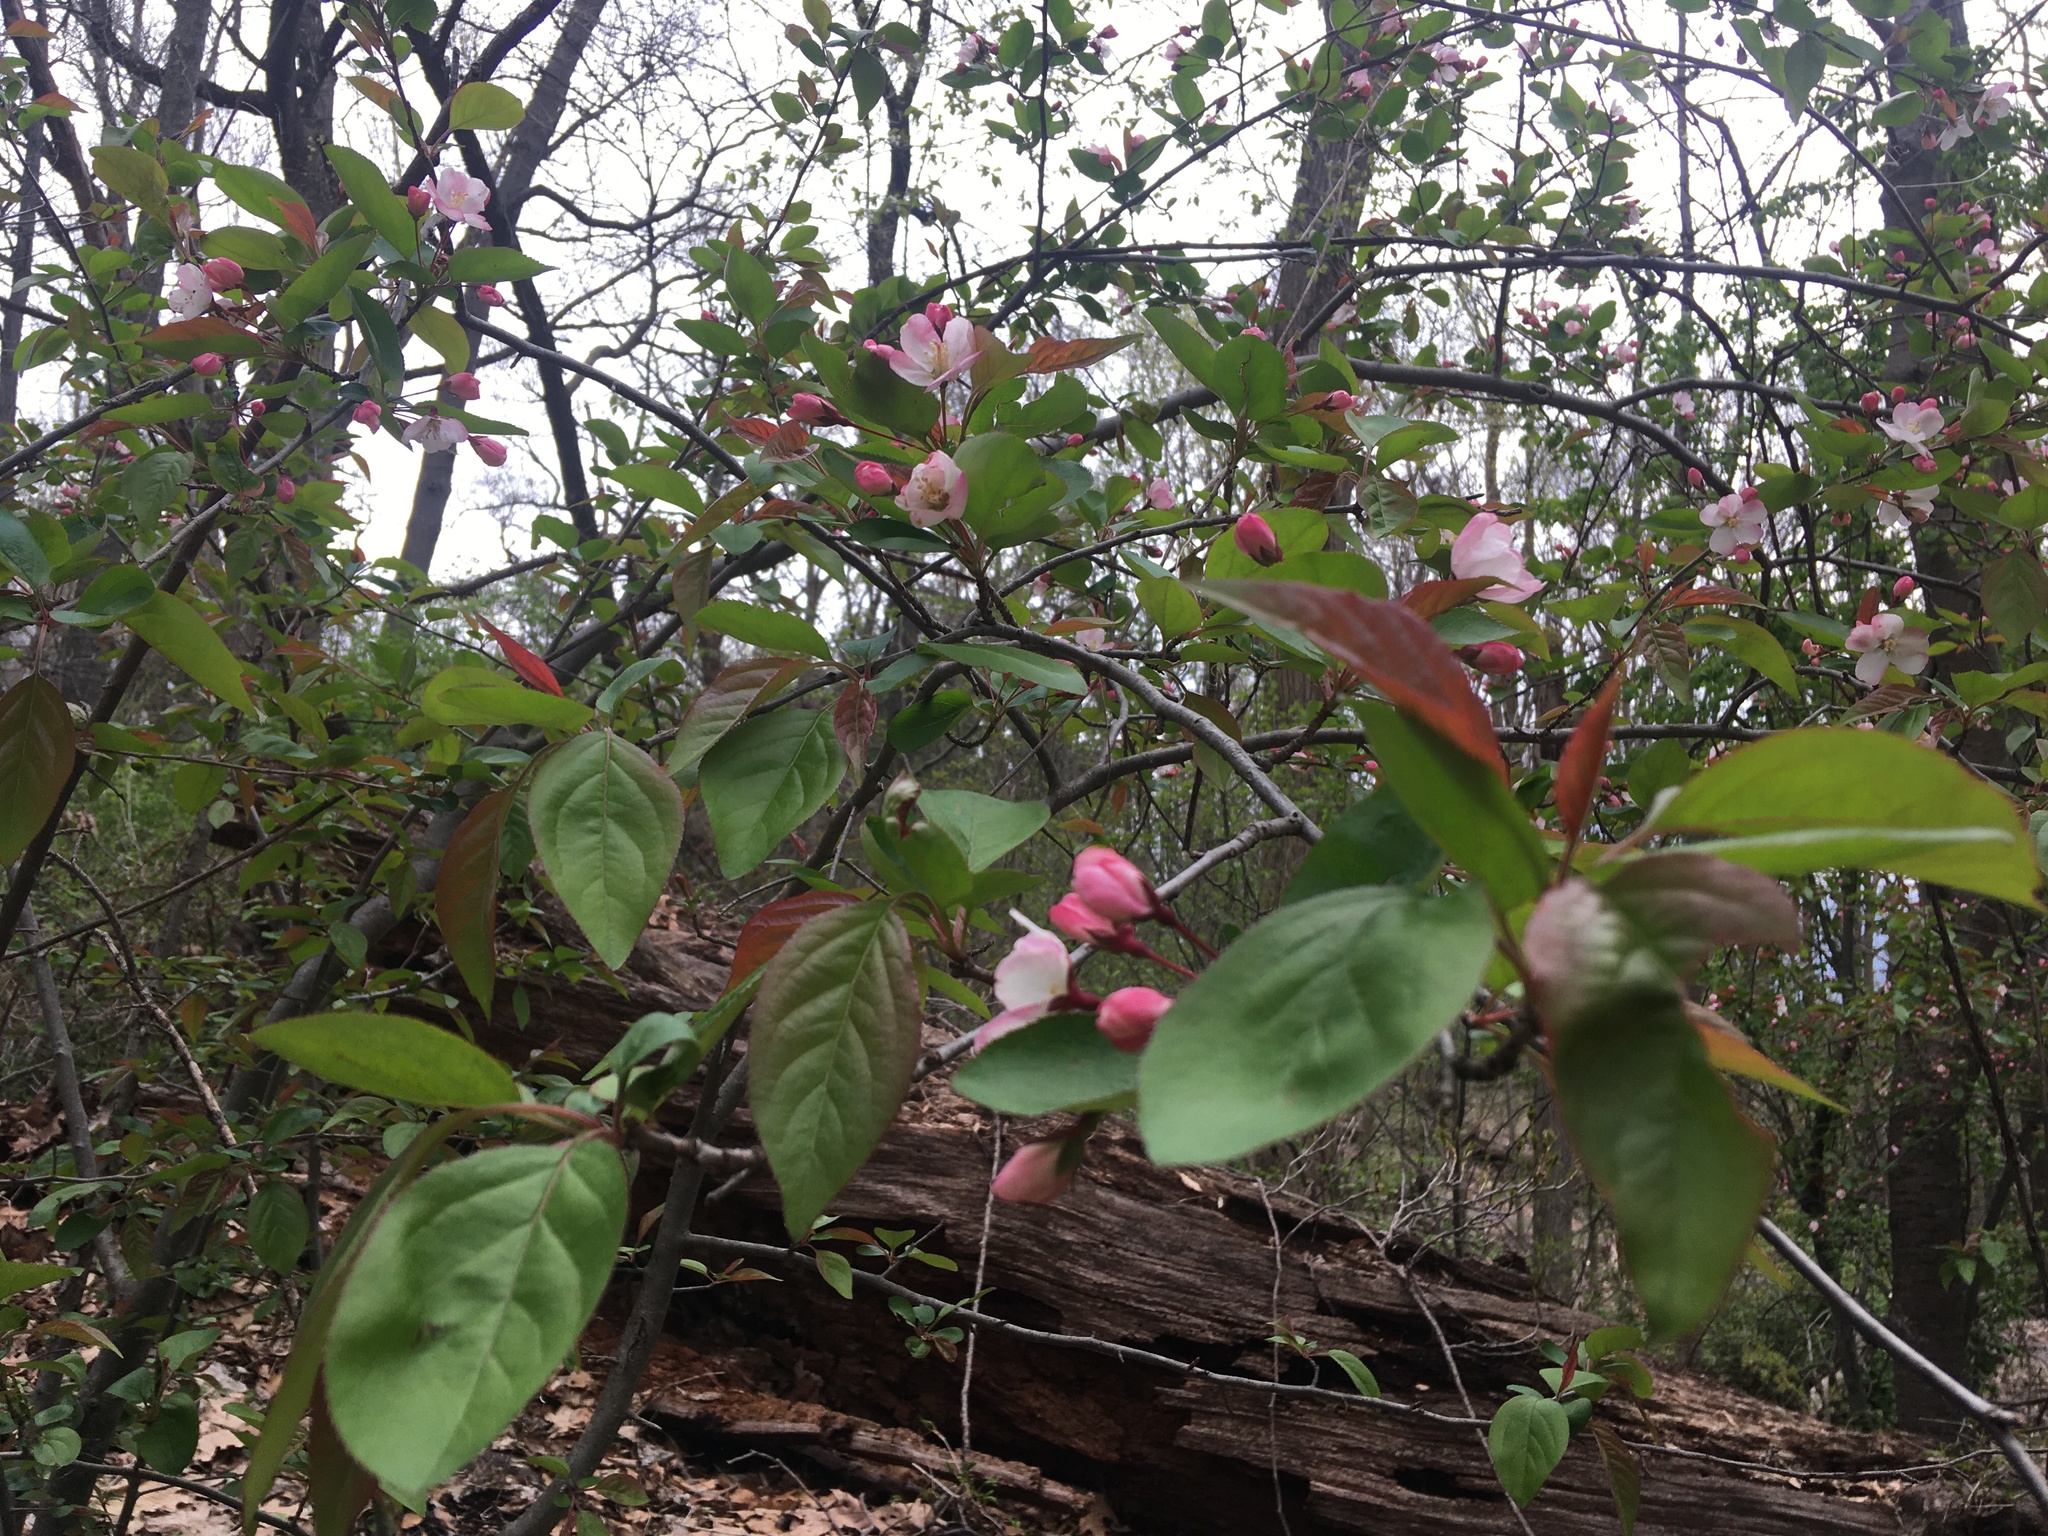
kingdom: Plantae
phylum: Tracheophyta
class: Magnoliopsida
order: Rosales
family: Rosaceae
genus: Malus
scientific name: Malus hupehensis
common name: Chinese crab apple
